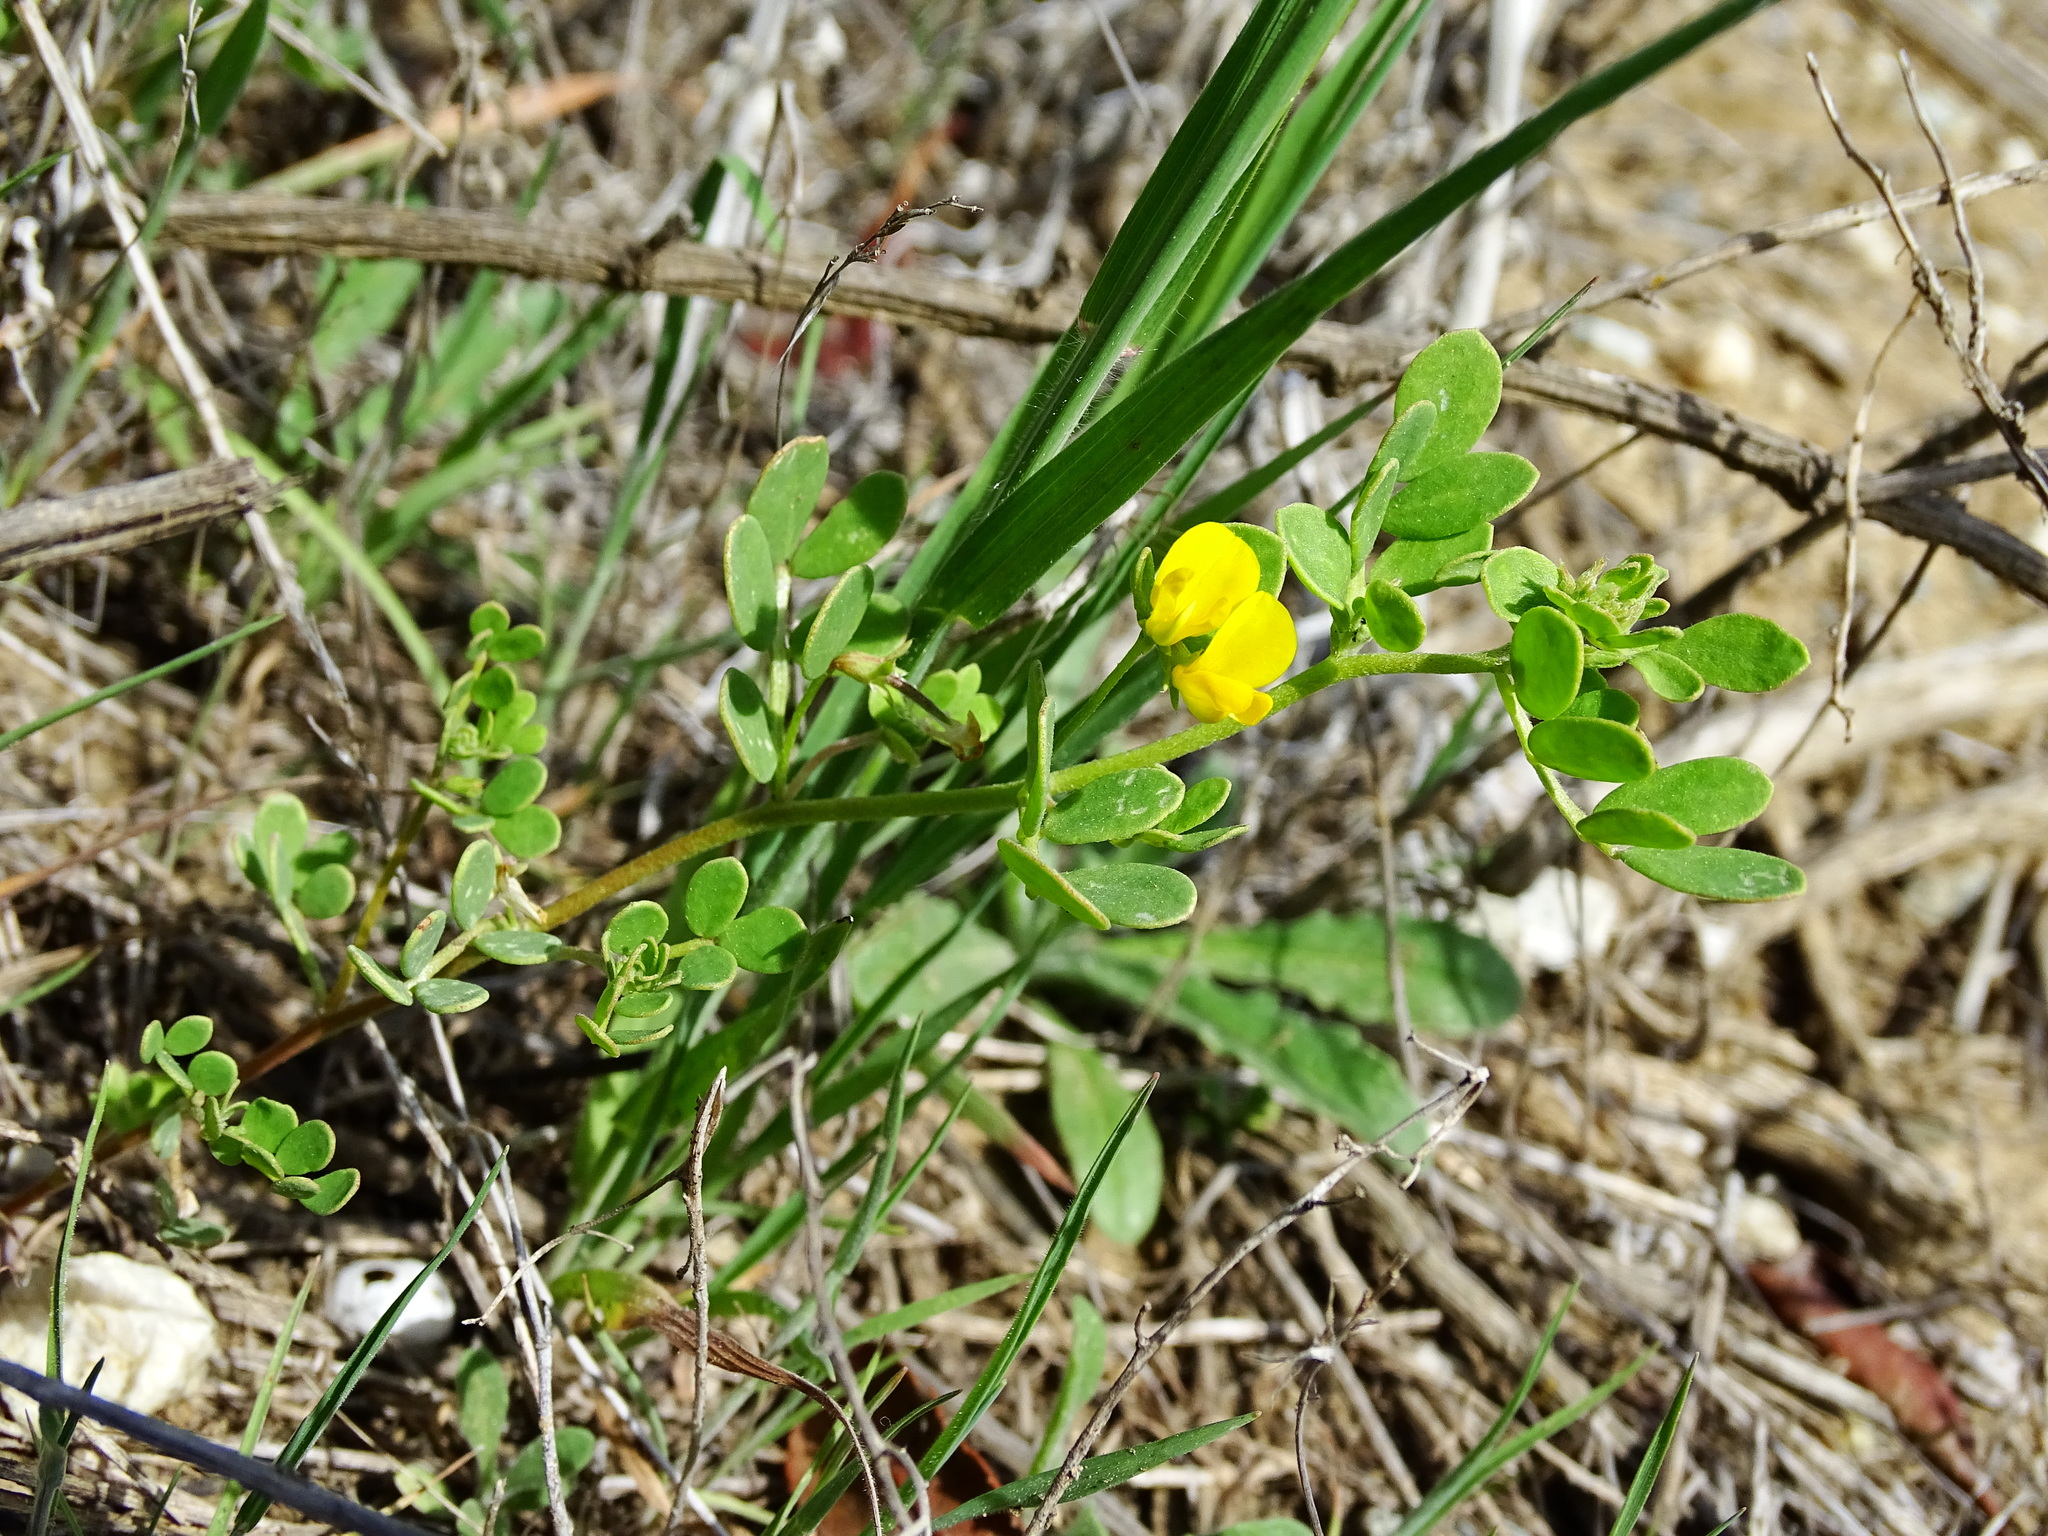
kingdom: Plantae
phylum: Tracheophyta
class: Magnoliopsida
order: Fabales
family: Fabaceae
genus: Acmispon
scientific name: Acmispon maritimus
